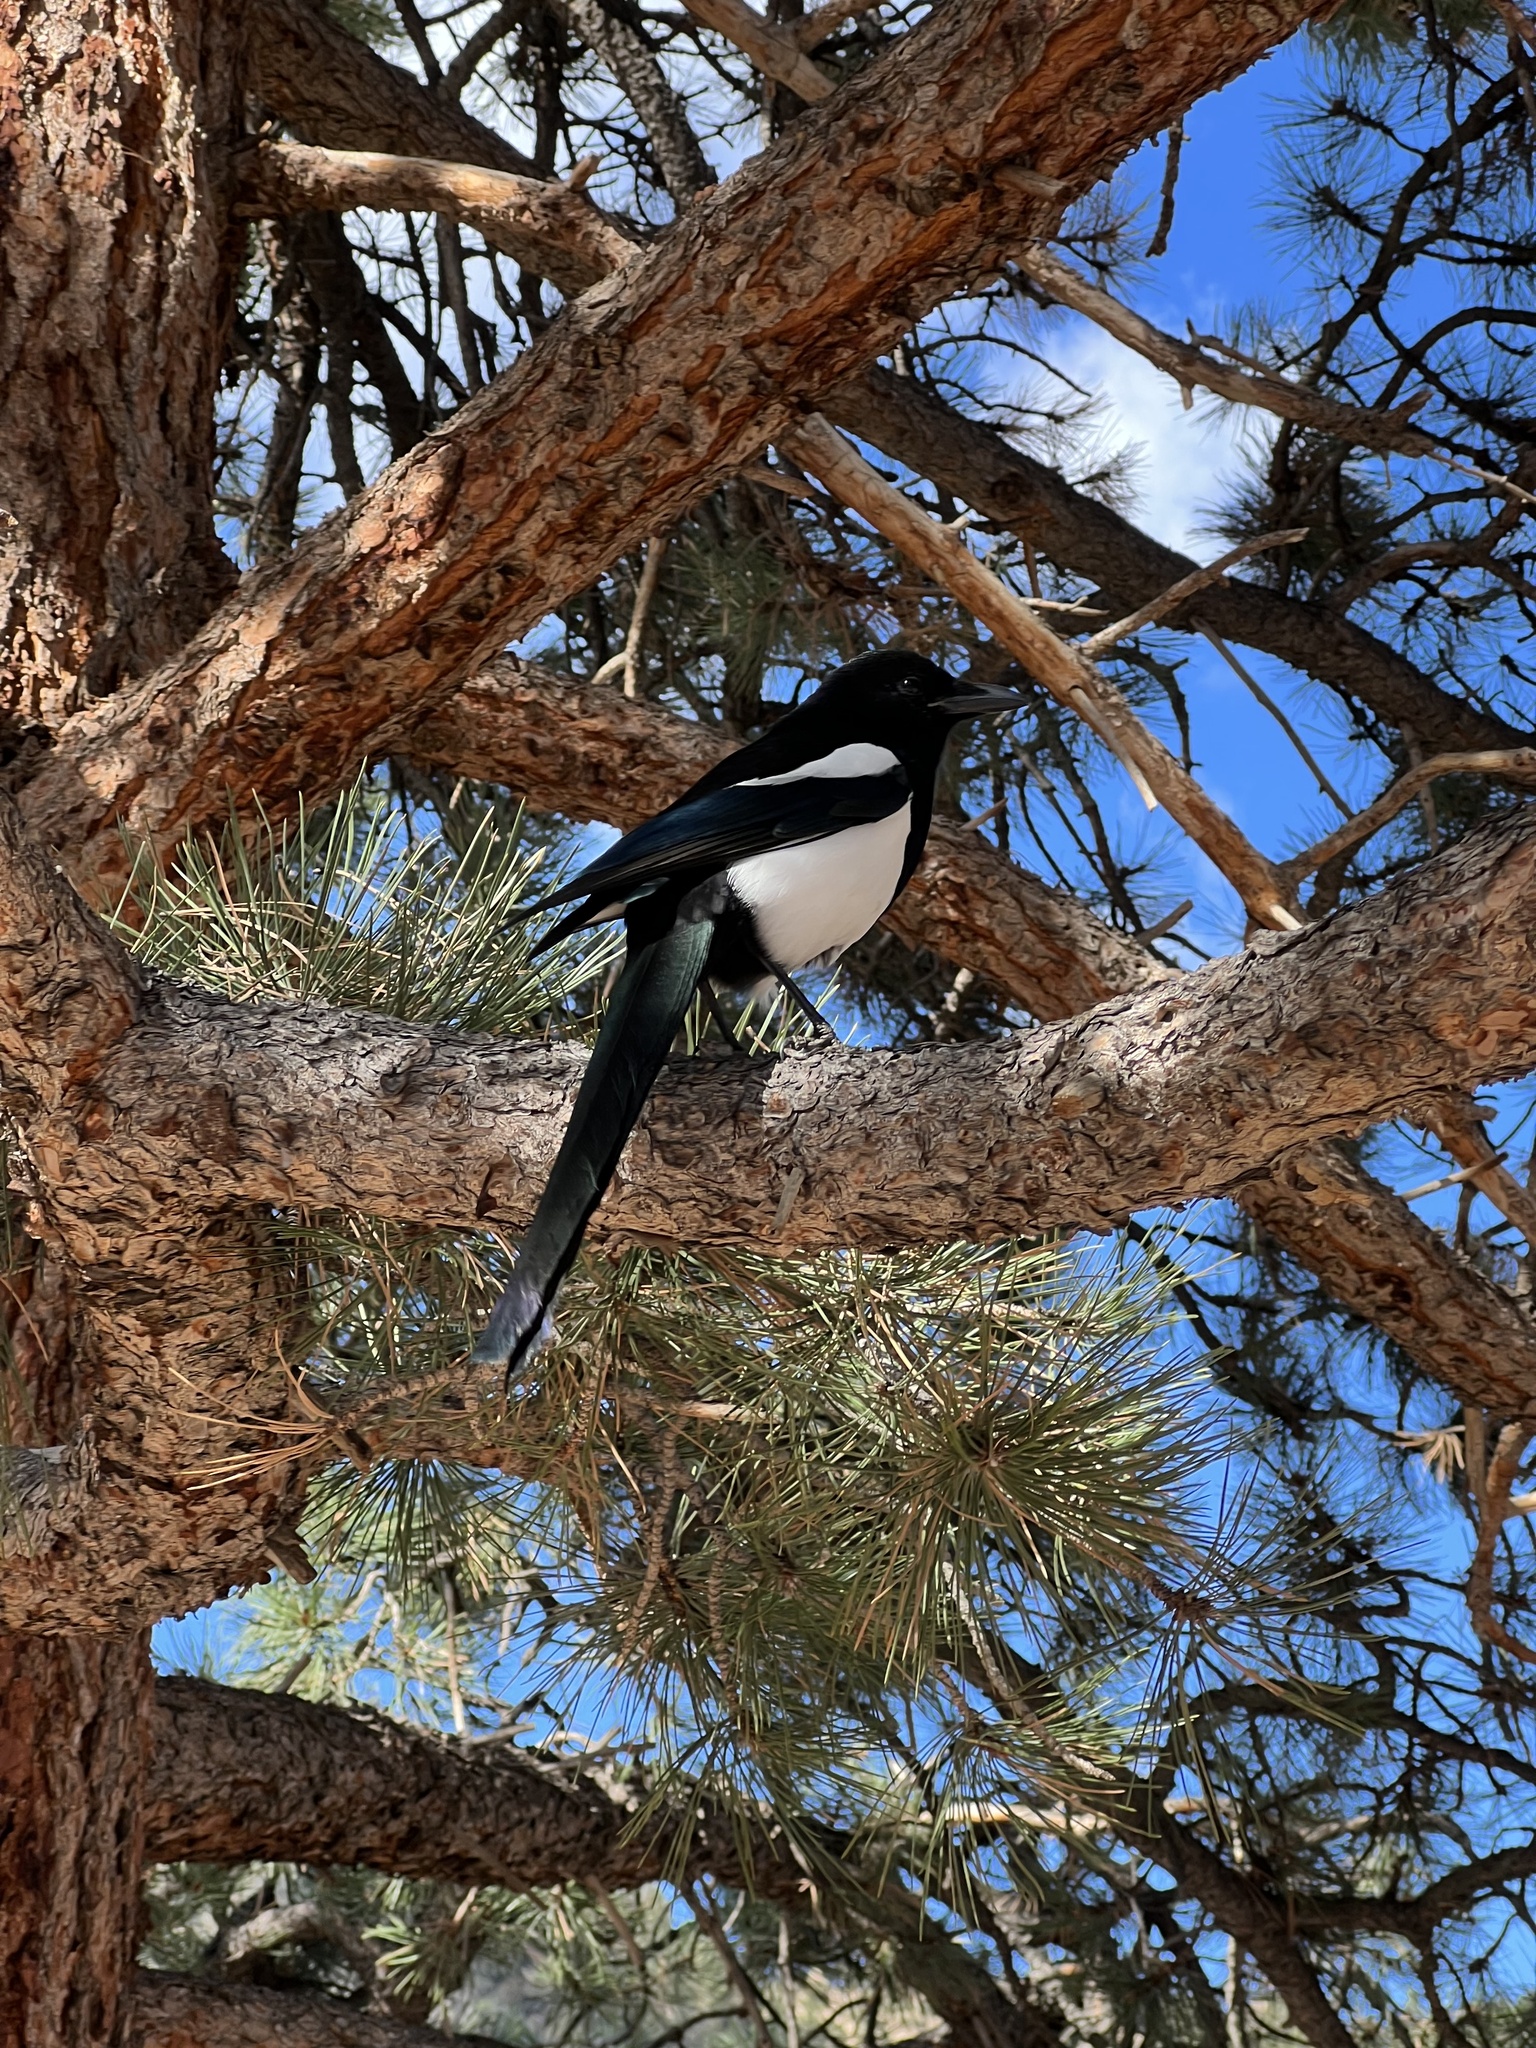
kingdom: Animalia
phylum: Chordata
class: Aves
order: Passeriformes
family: Corvidae
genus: Pica
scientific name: Pica hudsonia
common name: Black-billed magpie
